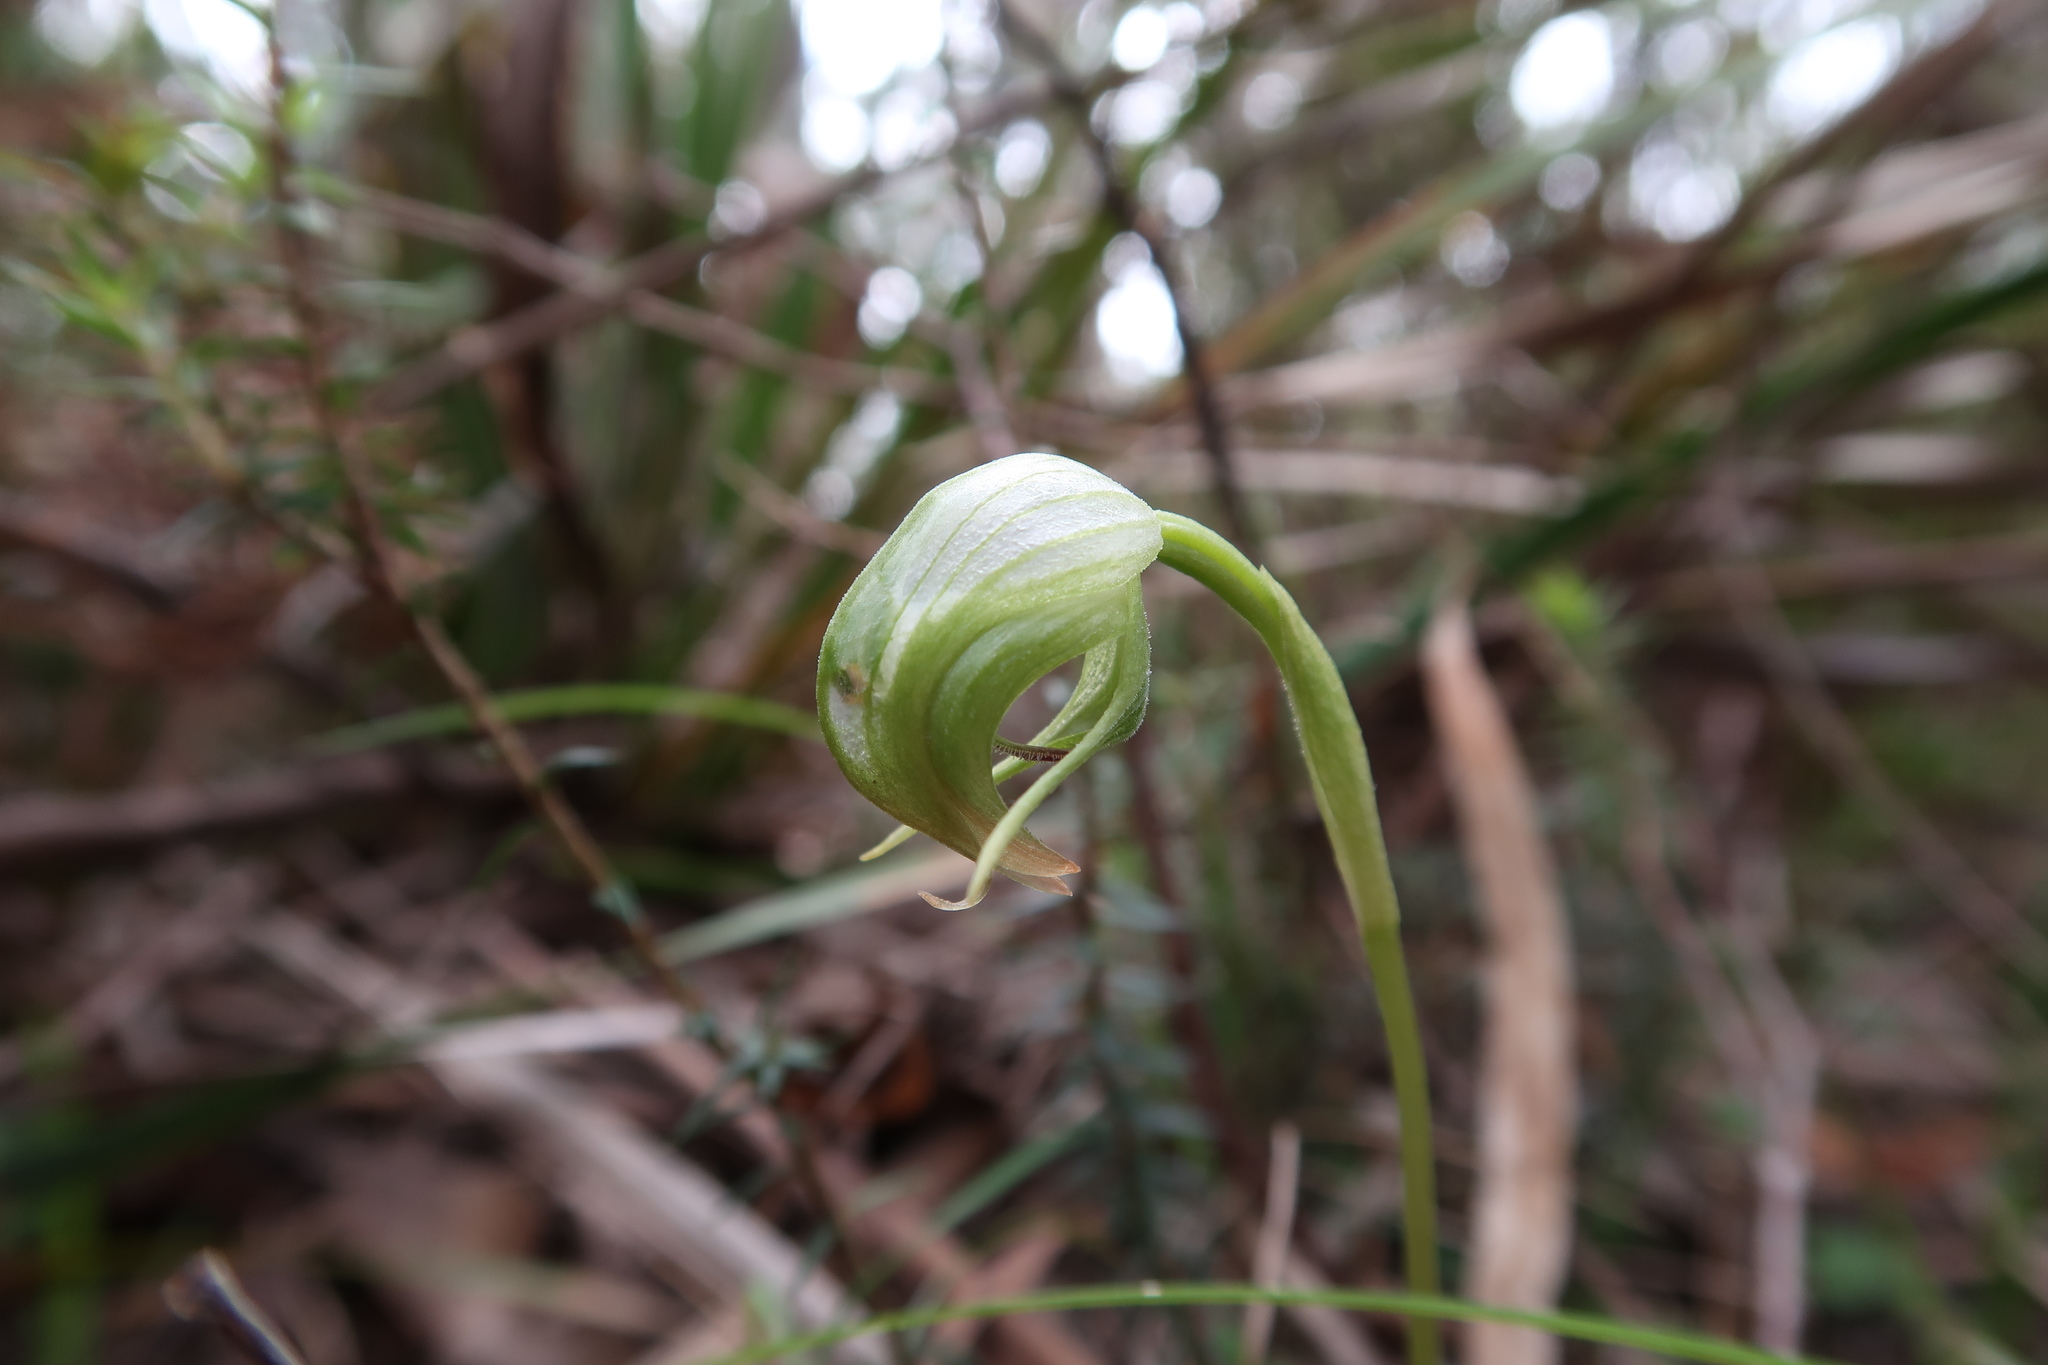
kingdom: Plantae
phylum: Tracheophyta
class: Liliopsida
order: Asparagales
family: Orchidaceae
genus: Pterostylis
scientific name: Pterostylis nutans
